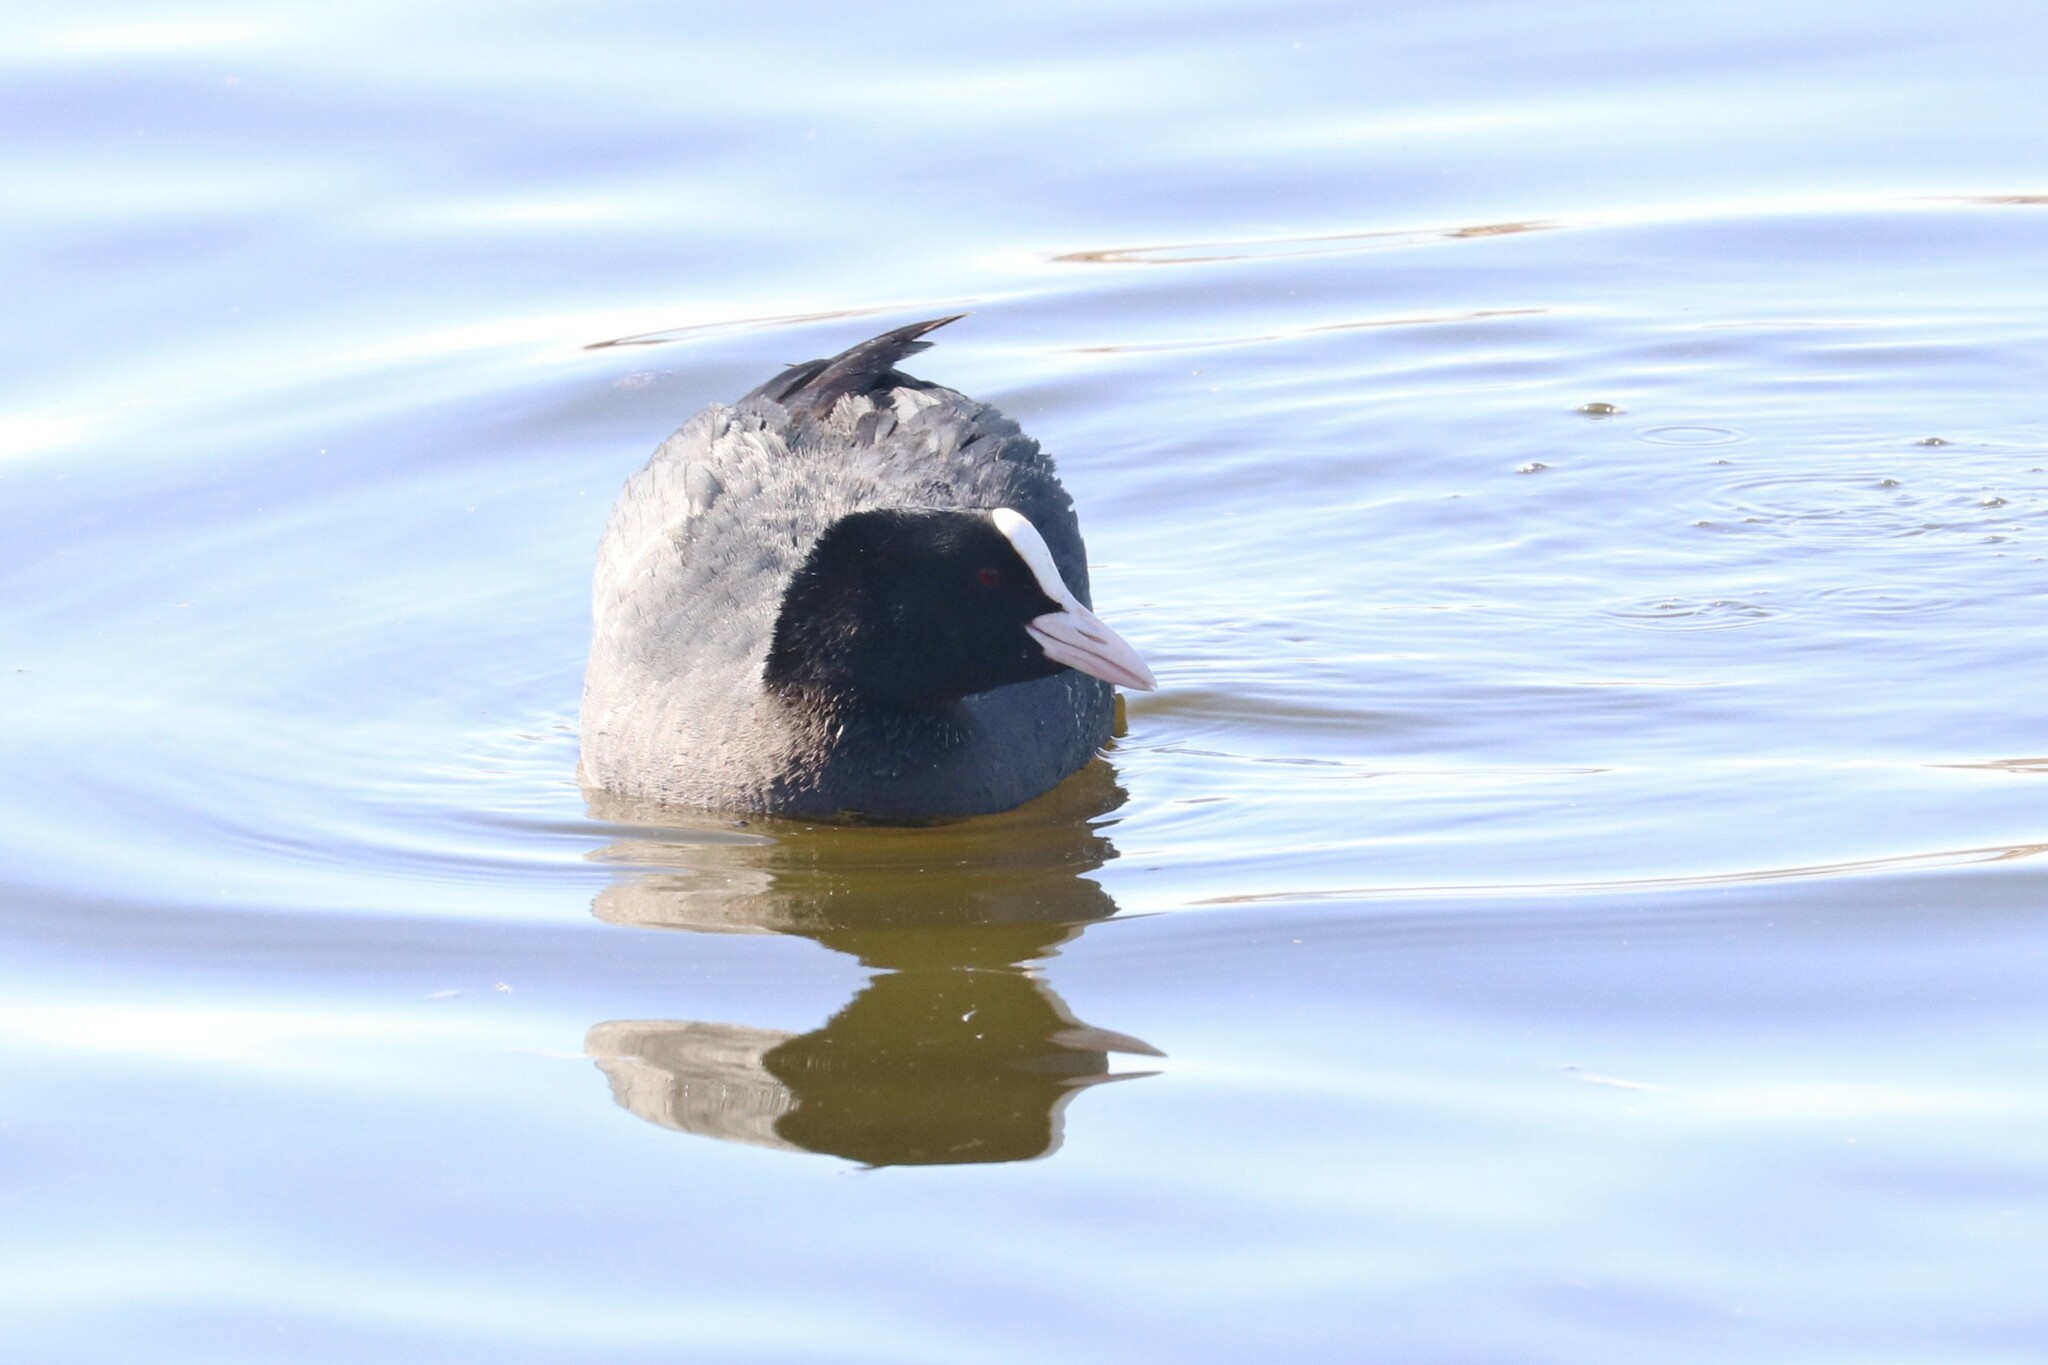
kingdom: Animalia
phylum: Chordata
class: Aves
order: Gruiformes
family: Rallidae
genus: Fulica
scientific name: Fulica atra
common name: Eurasian coot
